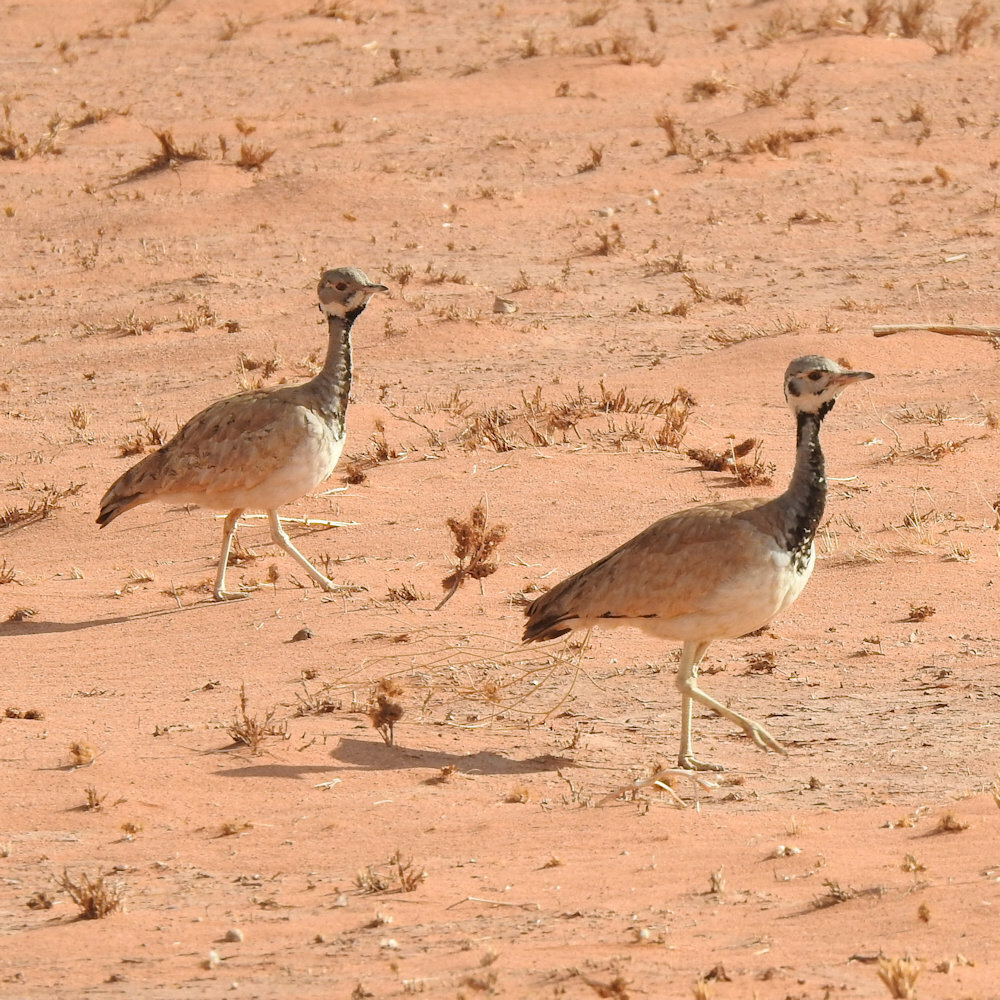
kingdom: Animalia
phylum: Chordata
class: Aves
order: Otidiformes
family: Otididae
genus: Heterotetrax
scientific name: Heterotetrax rueppelii
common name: Rüppell's korhaan
